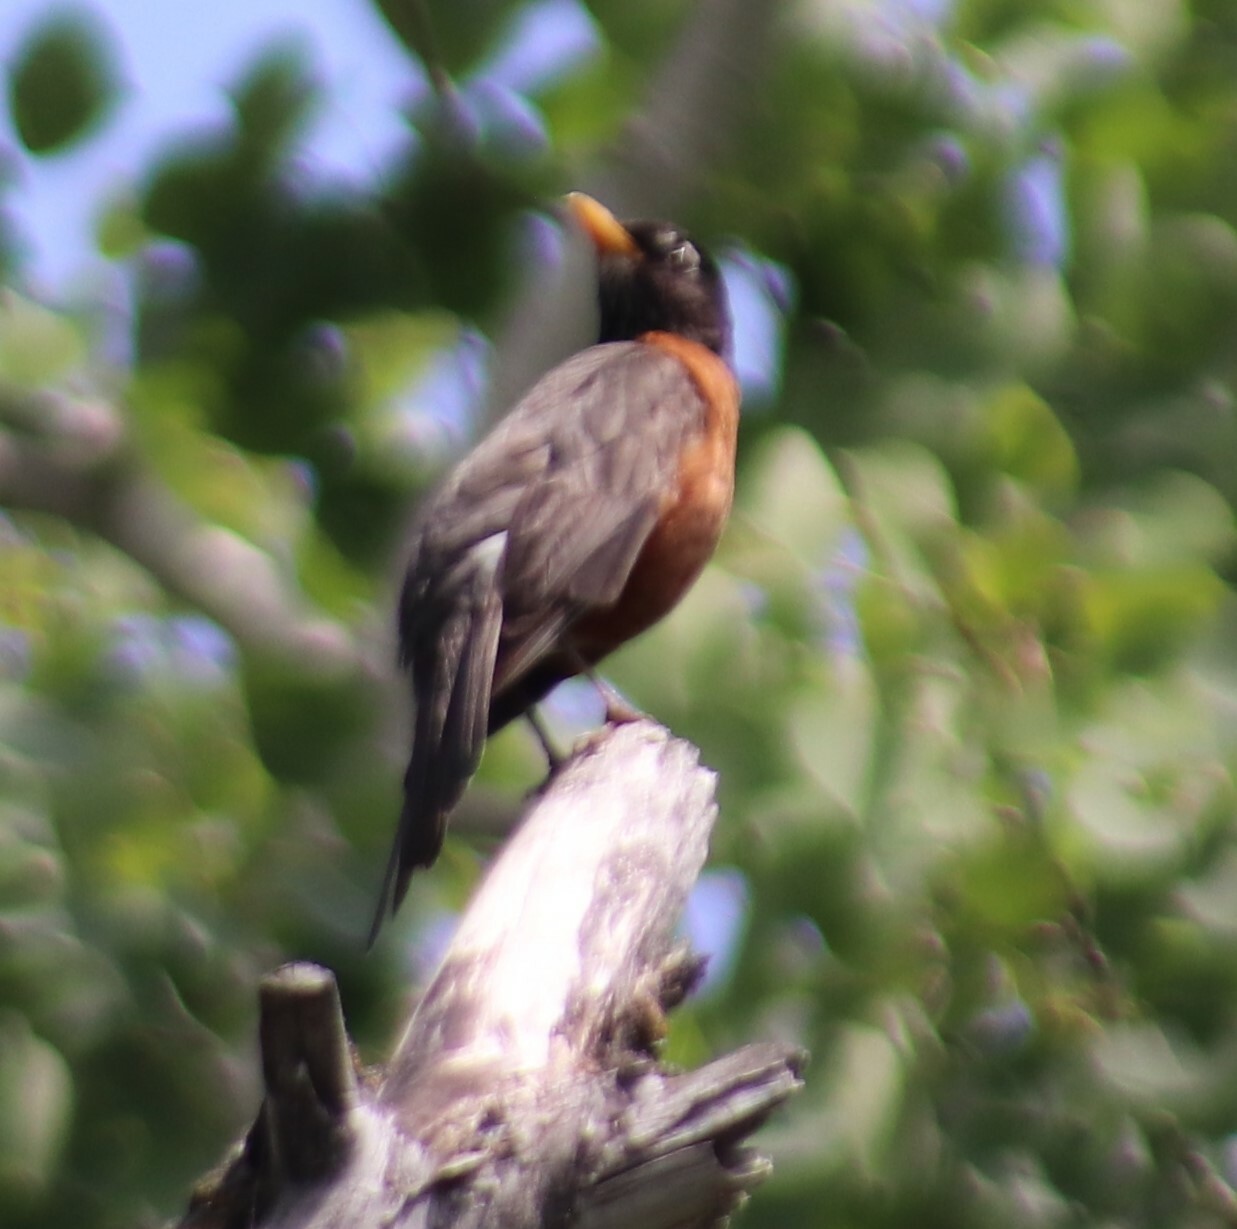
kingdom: Animalia
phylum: Chordata
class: Aves
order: Passeriformes
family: Turdidae
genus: Turdus
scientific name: Turdus migratorius
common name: American robin
